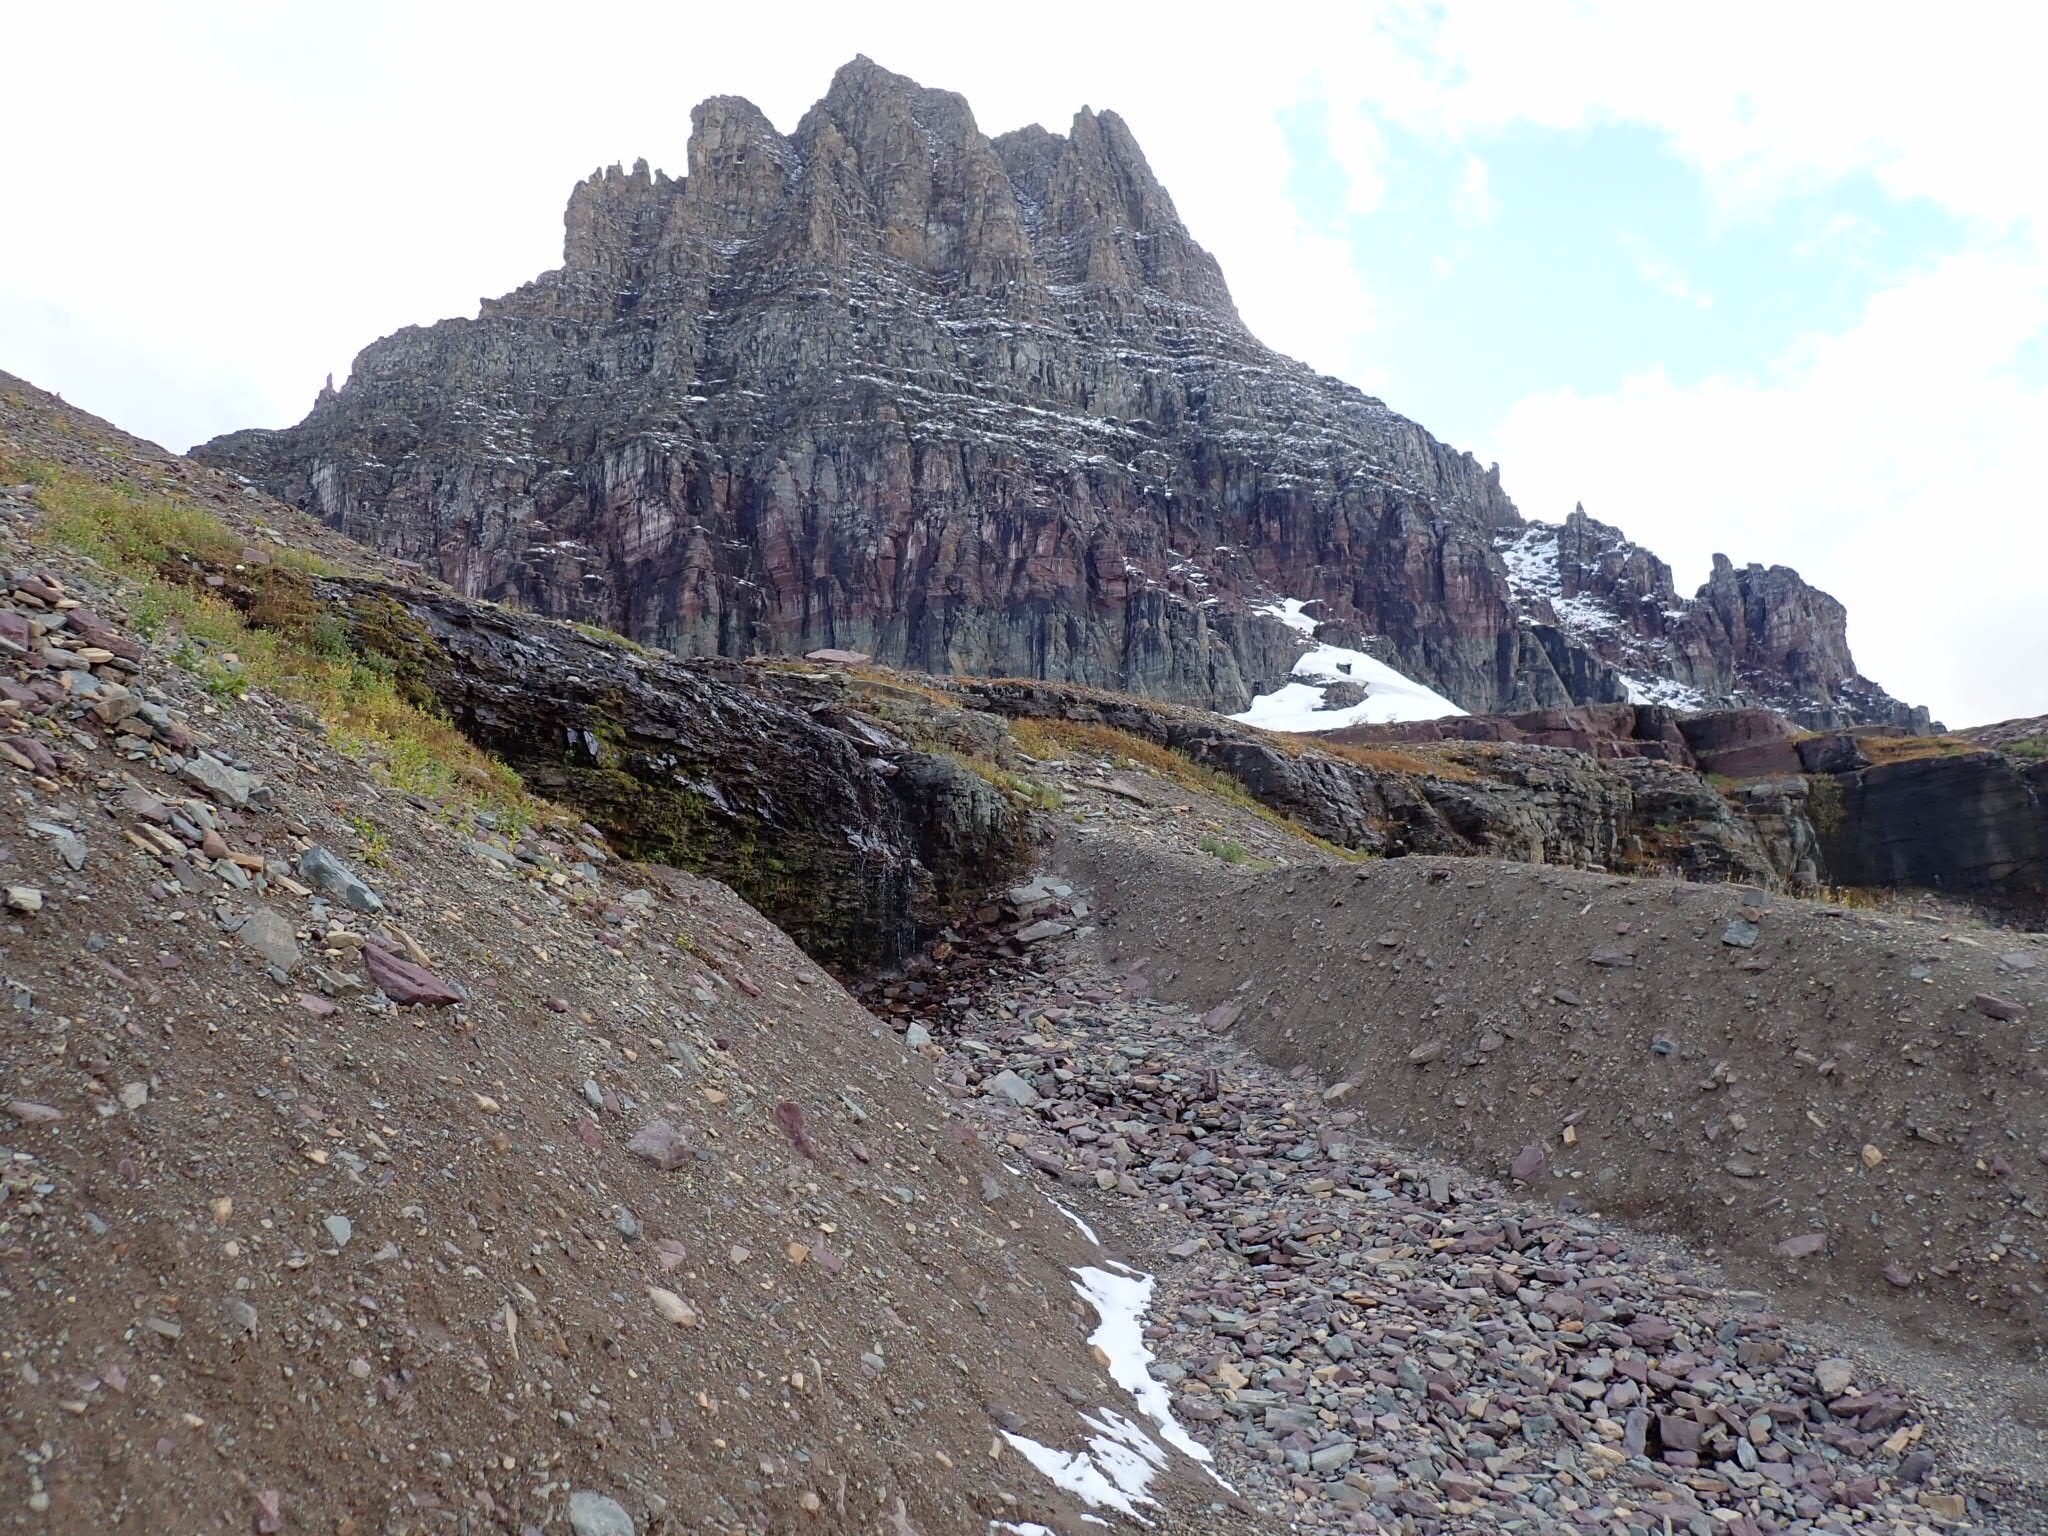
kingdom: Plantae
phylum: Tracheophyta
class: Magnoliopsida
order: Lamiales
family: Phrymaceae
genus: Erythranthe
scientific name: Erythranthe guttata
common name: Monkeyflower
